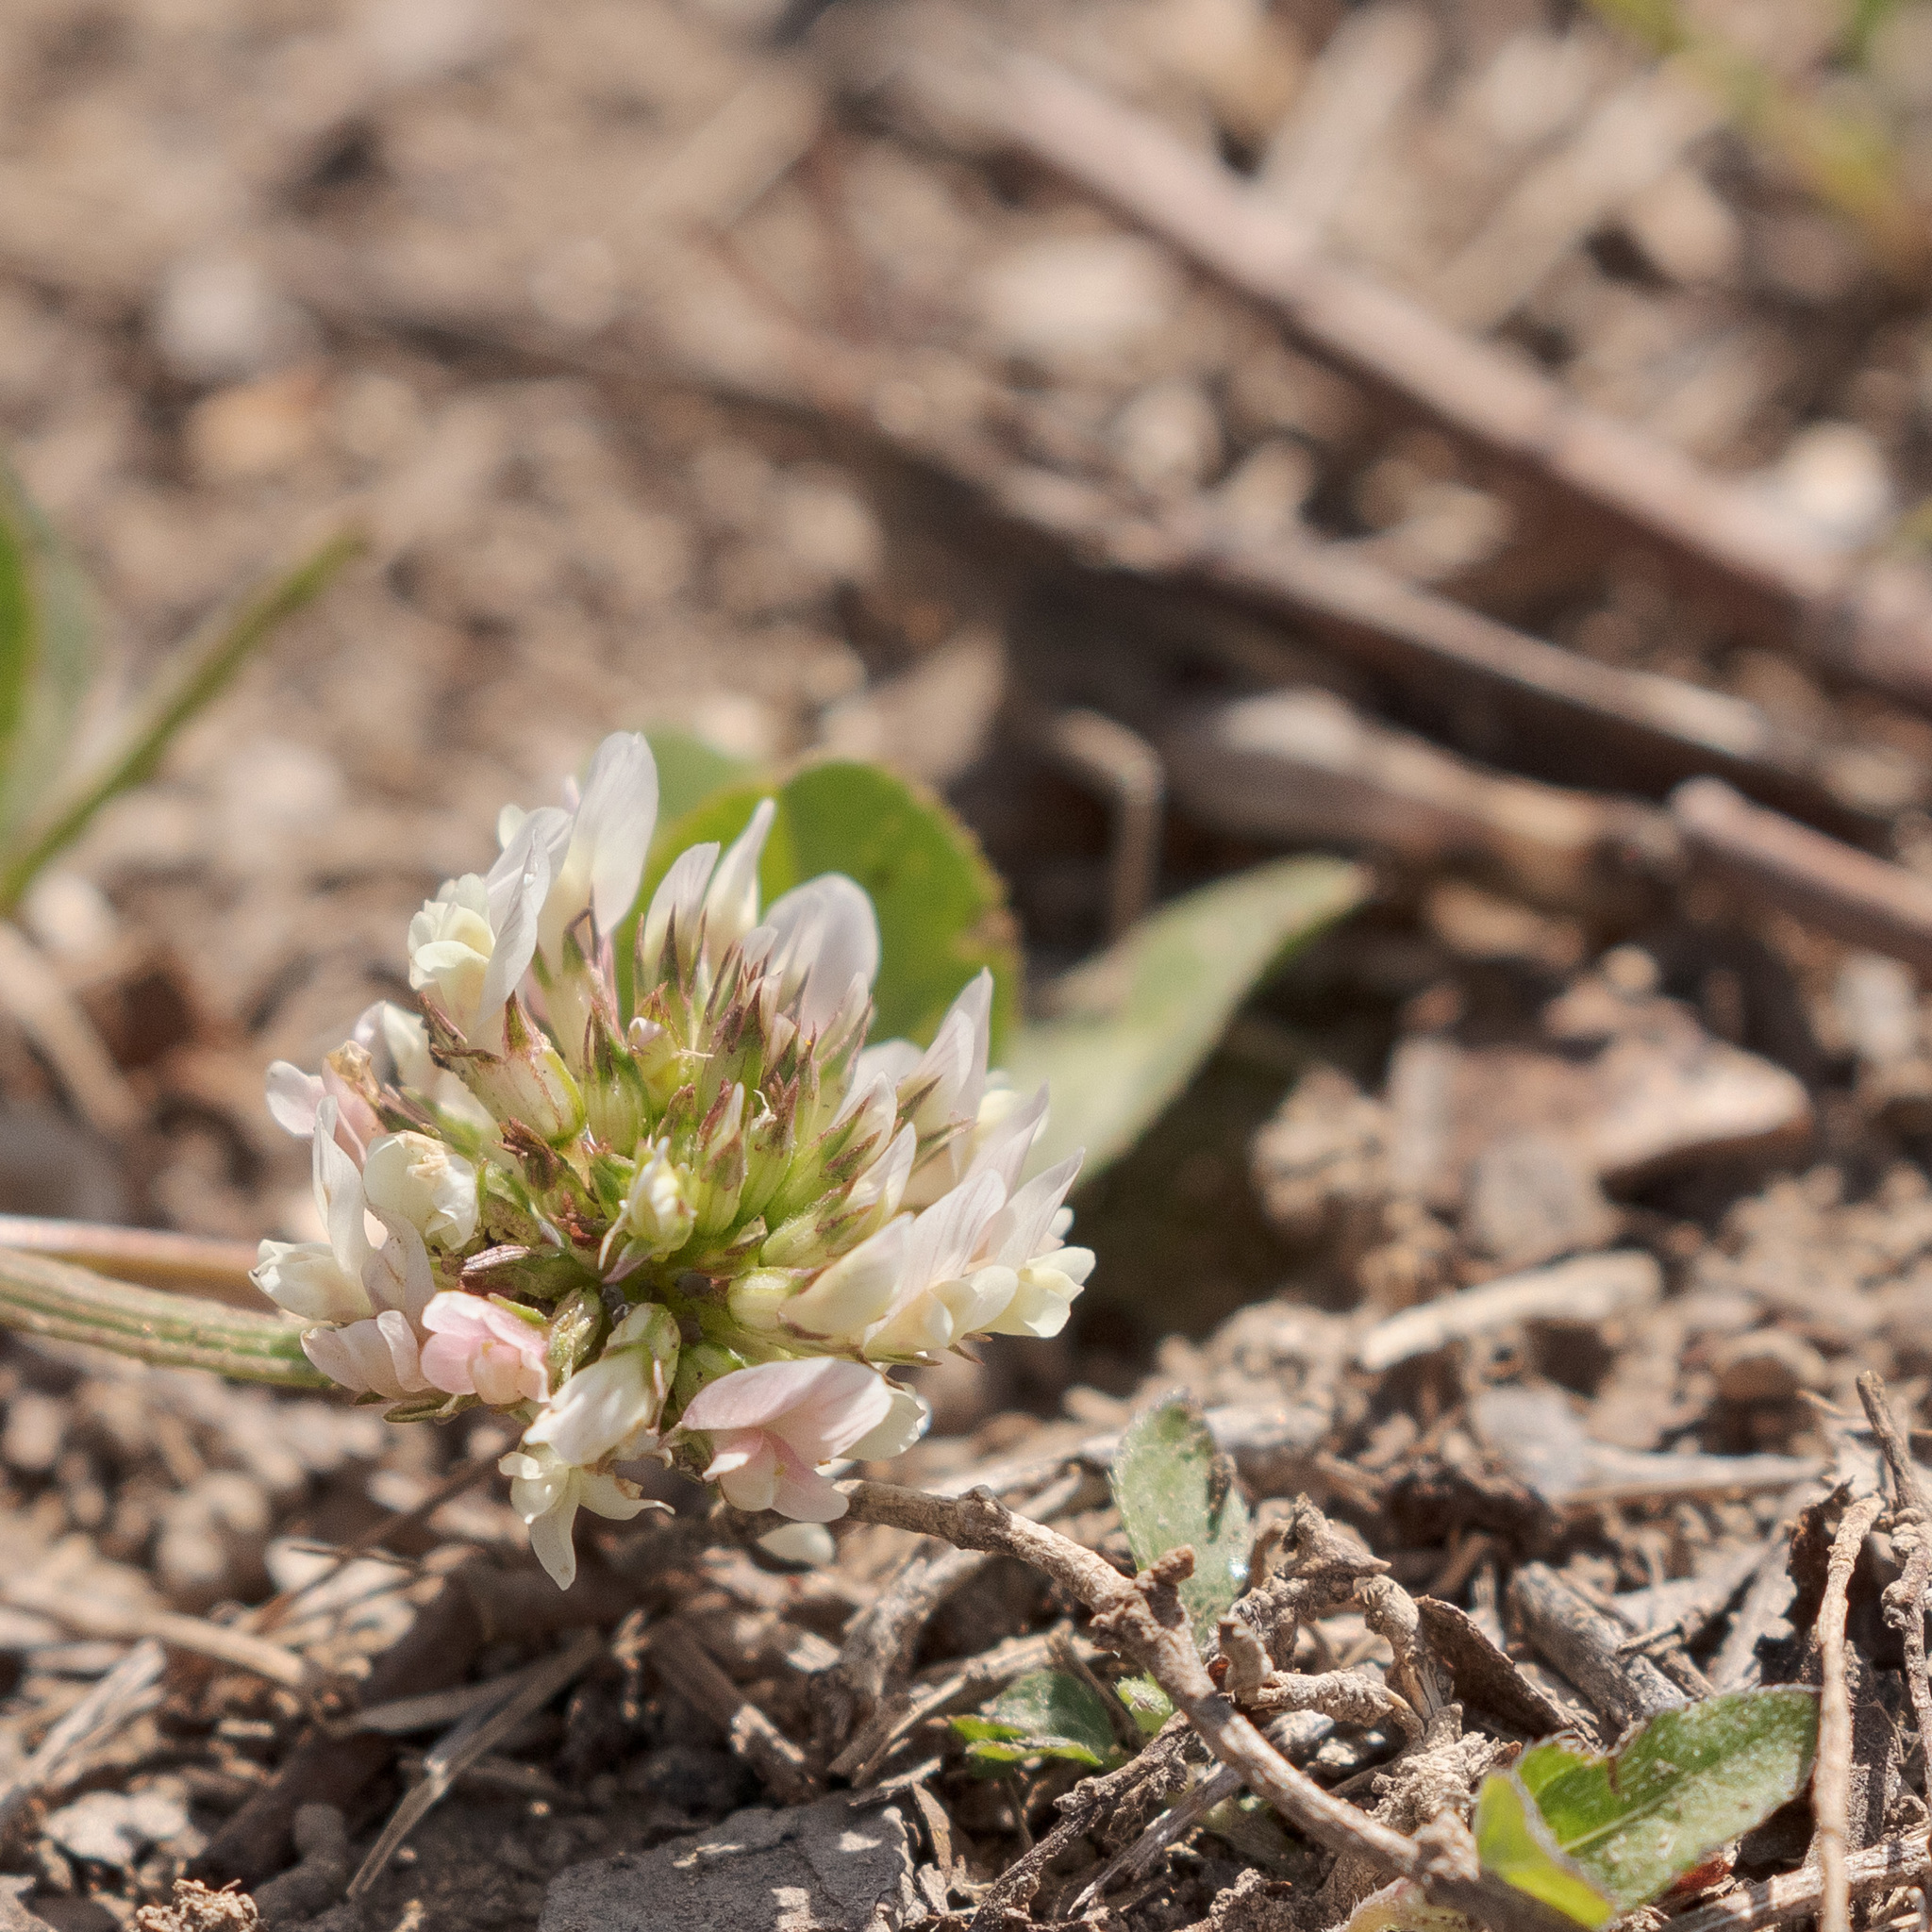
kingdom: Plantae
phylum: Tracheophyta
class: Magnoliopsida
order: Fabales
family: Fabaceae
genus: Trifolium
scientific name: Trifolium repens
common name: White clover
